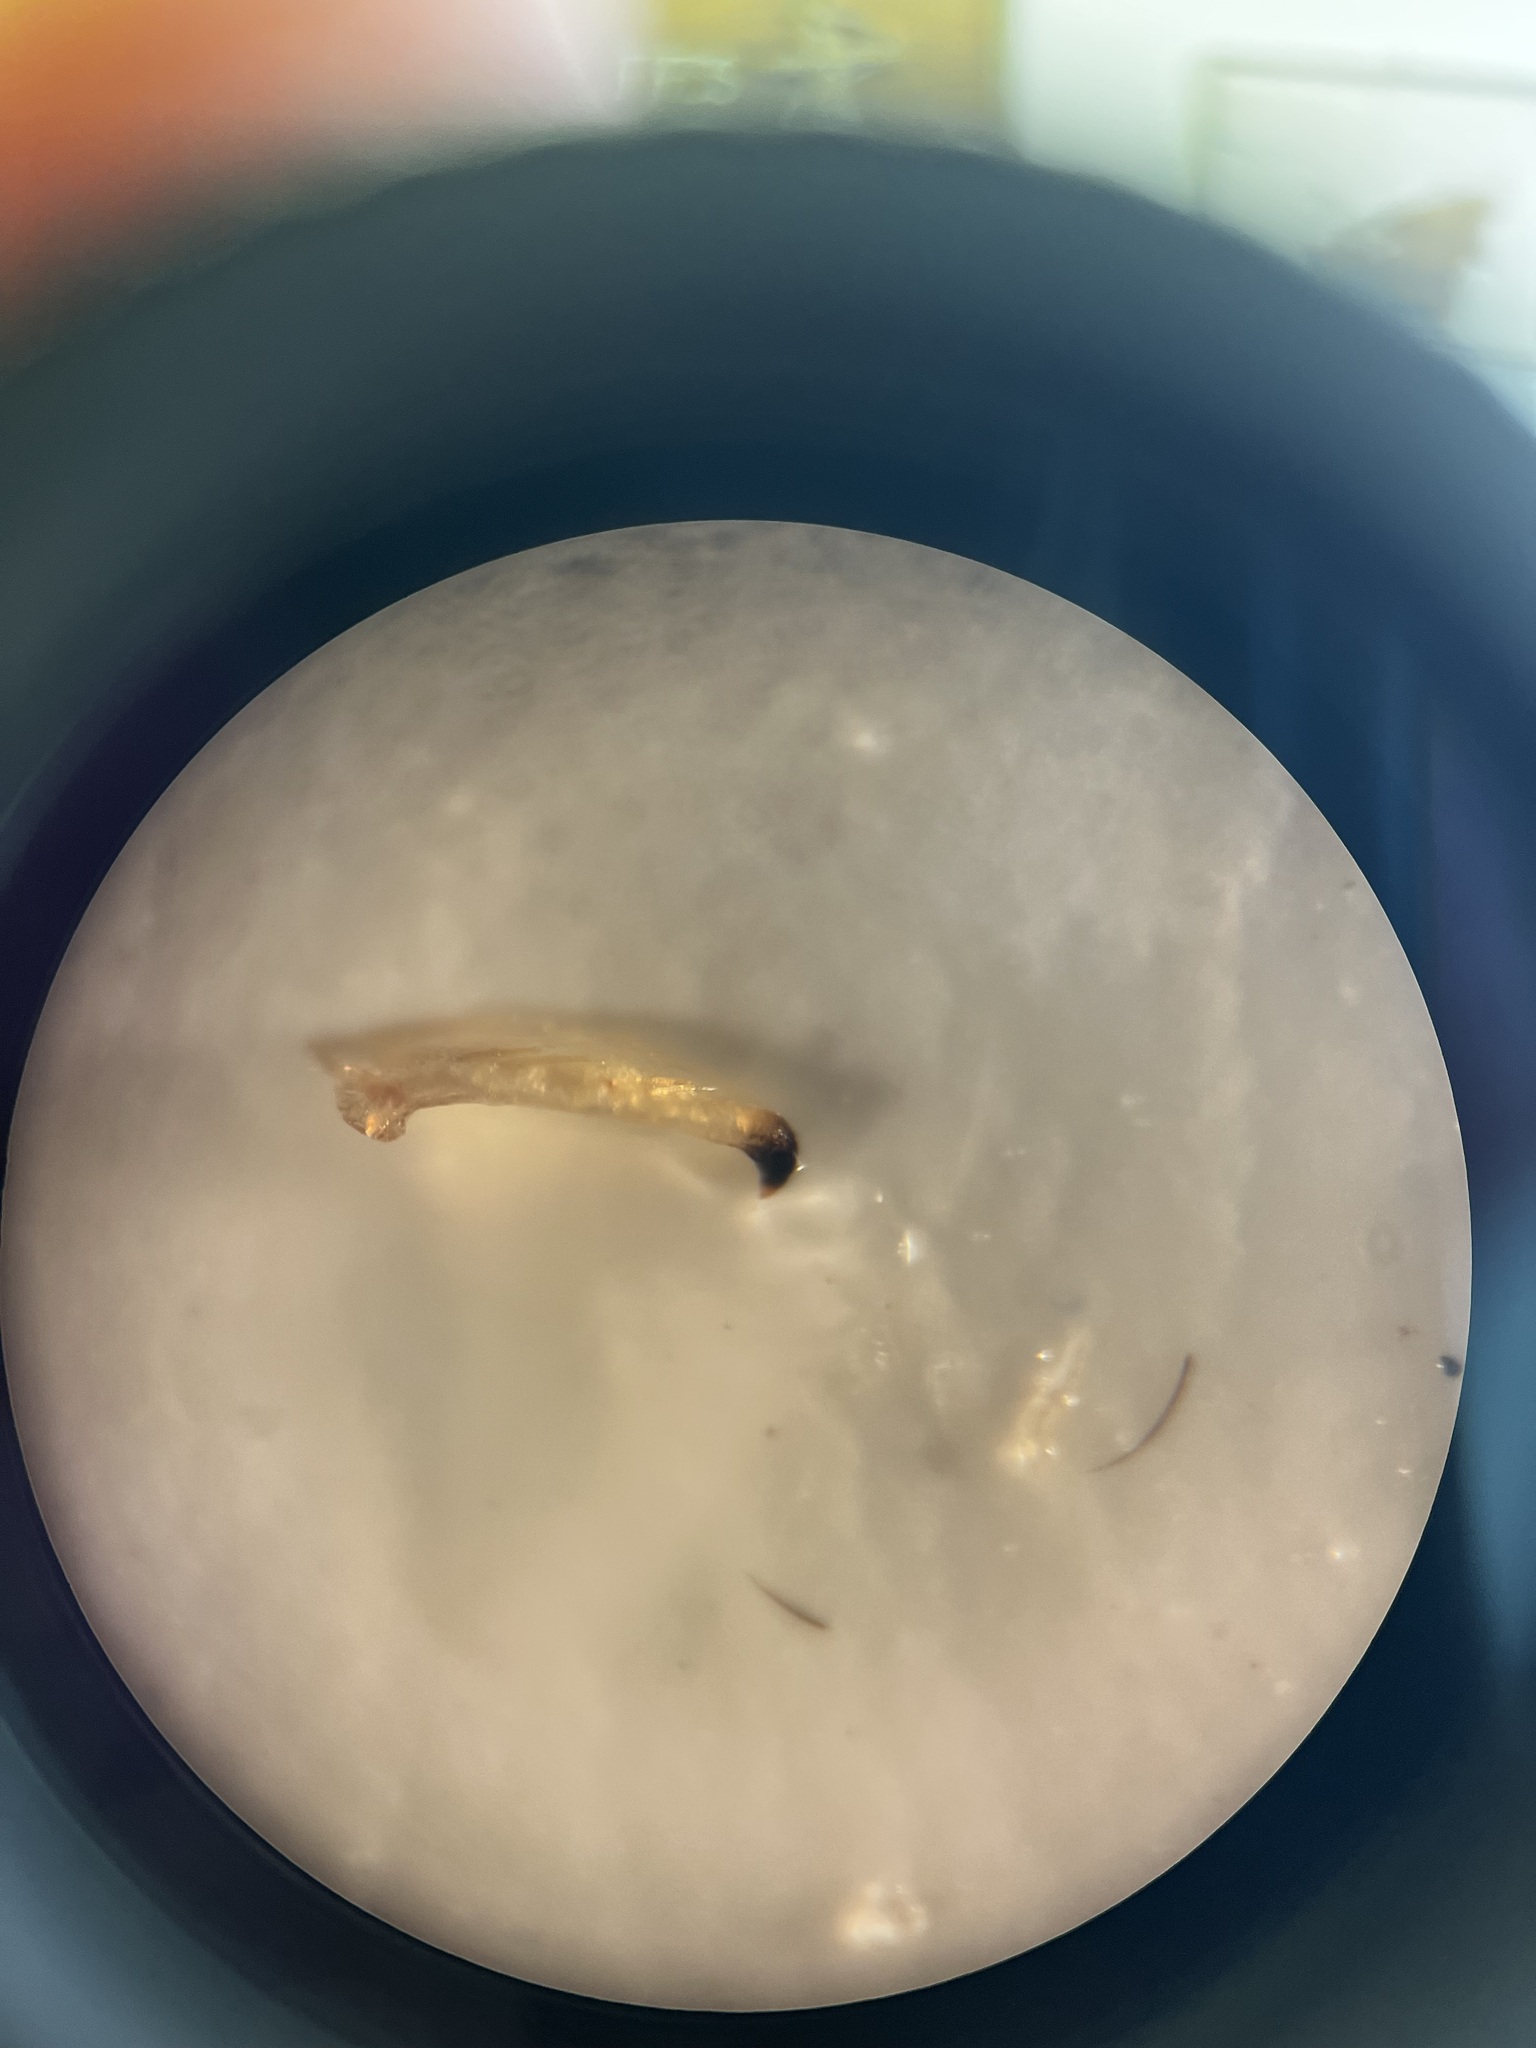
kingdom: Animalia
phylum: Arthropoda
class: Insecta
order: Hemiptera
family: Cicadellidae
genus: Aguriahana
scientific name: Aguriahana stellulata
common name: Leafhopper
